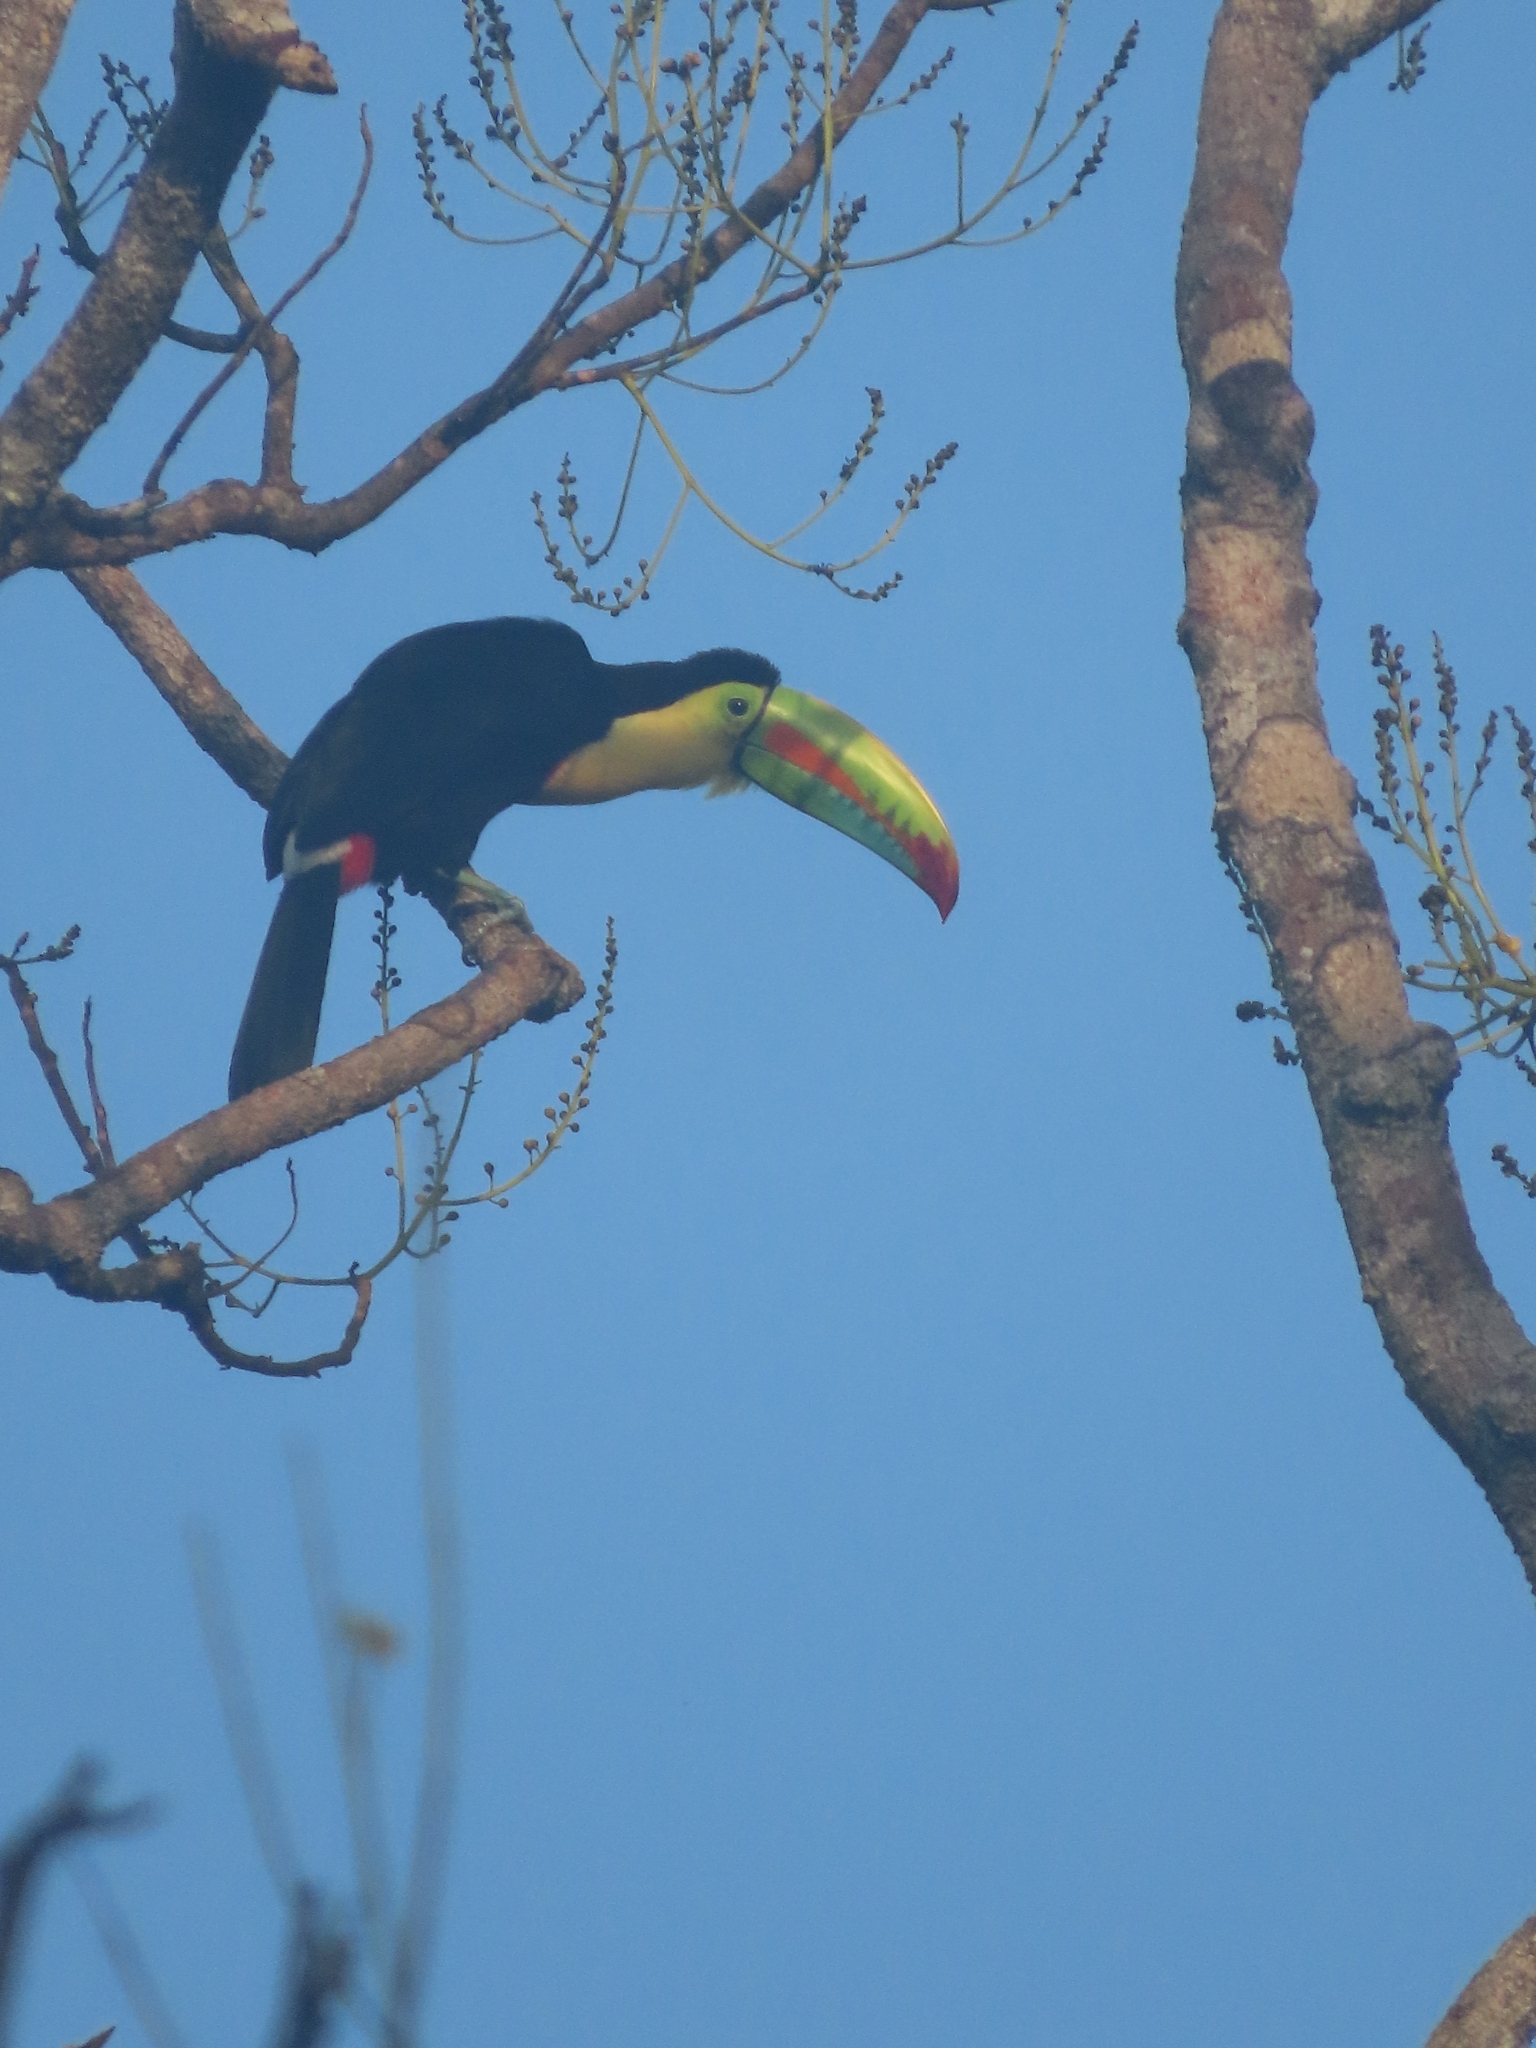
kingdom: Animalia
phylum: Chordata
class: Aves
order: Piciformes
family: Ramphastidae
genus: Ramphastos
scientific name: Ramphastos sulfuratus
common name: Keel-billed toucan
